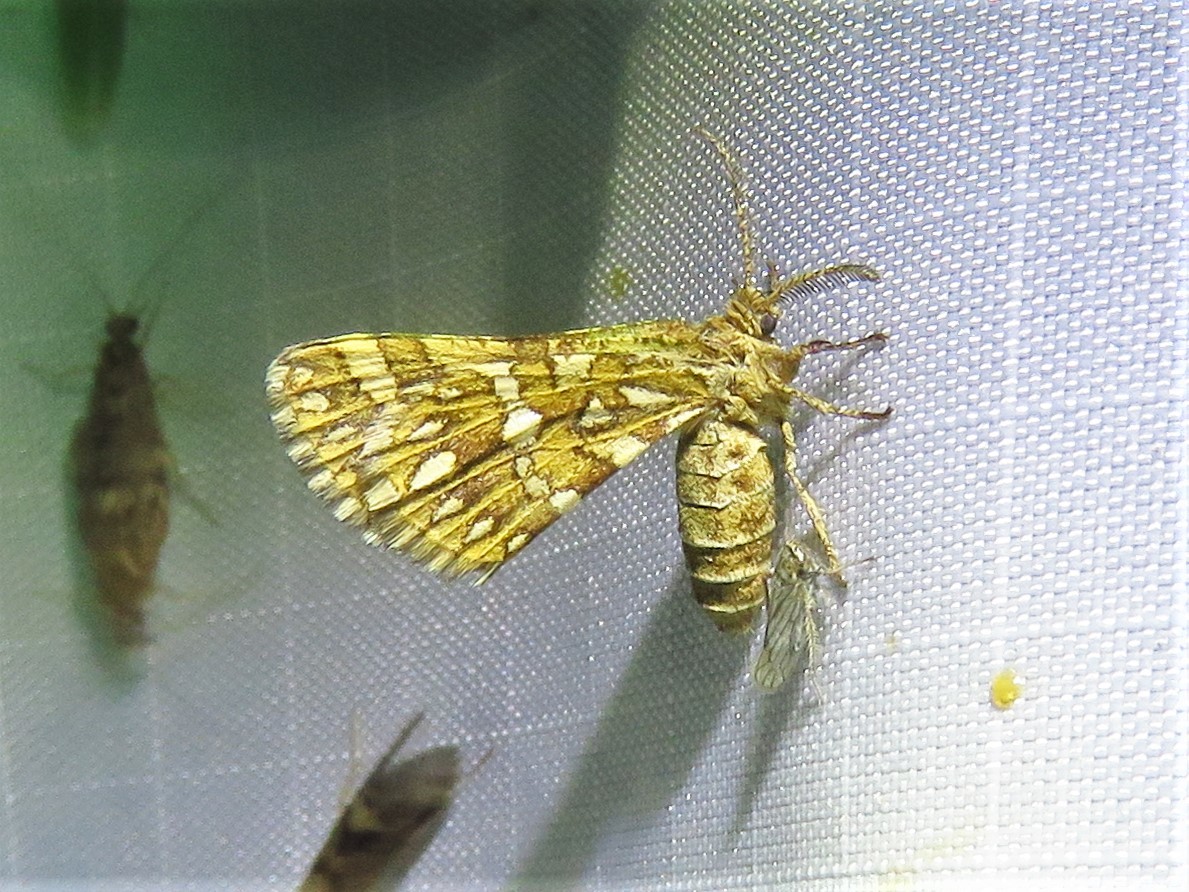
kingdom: Animalia
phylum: Arthropoda
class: Insecta
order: Lepidoptera
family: Geometridae
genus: Narraga
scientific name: Narraga fimetaria
